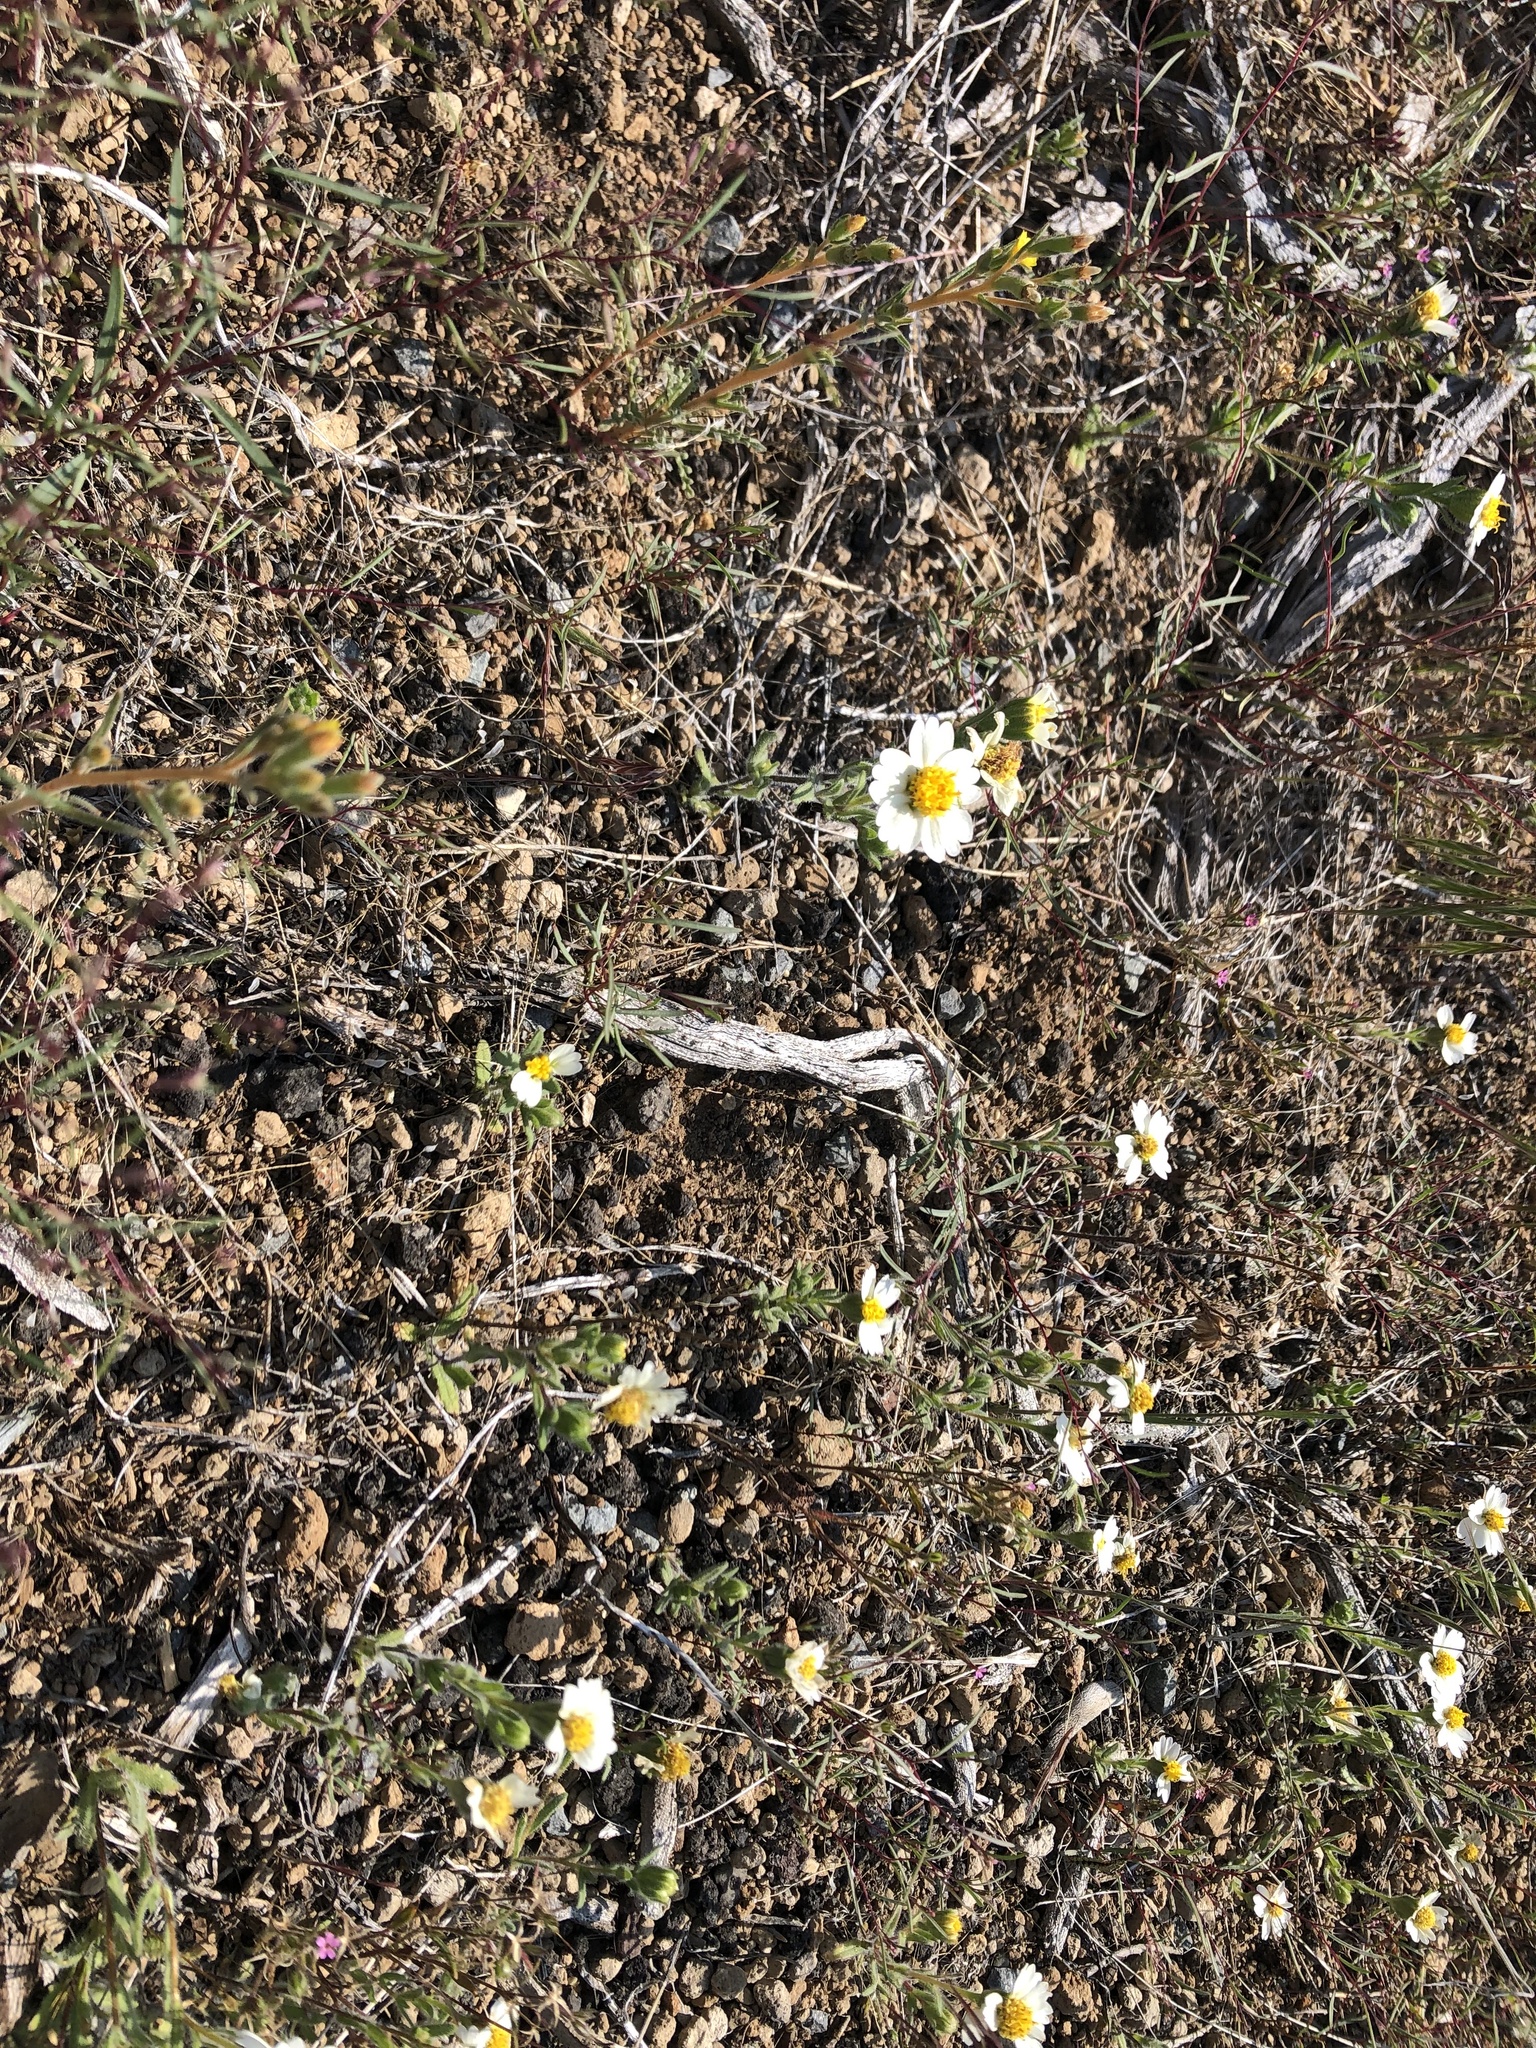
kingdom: Plantae
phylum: Tracheophyta
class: Magnoliopsida
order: Asterales
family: Asteraceae
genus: Layia
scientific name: Layia glandulosa
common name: White layia
